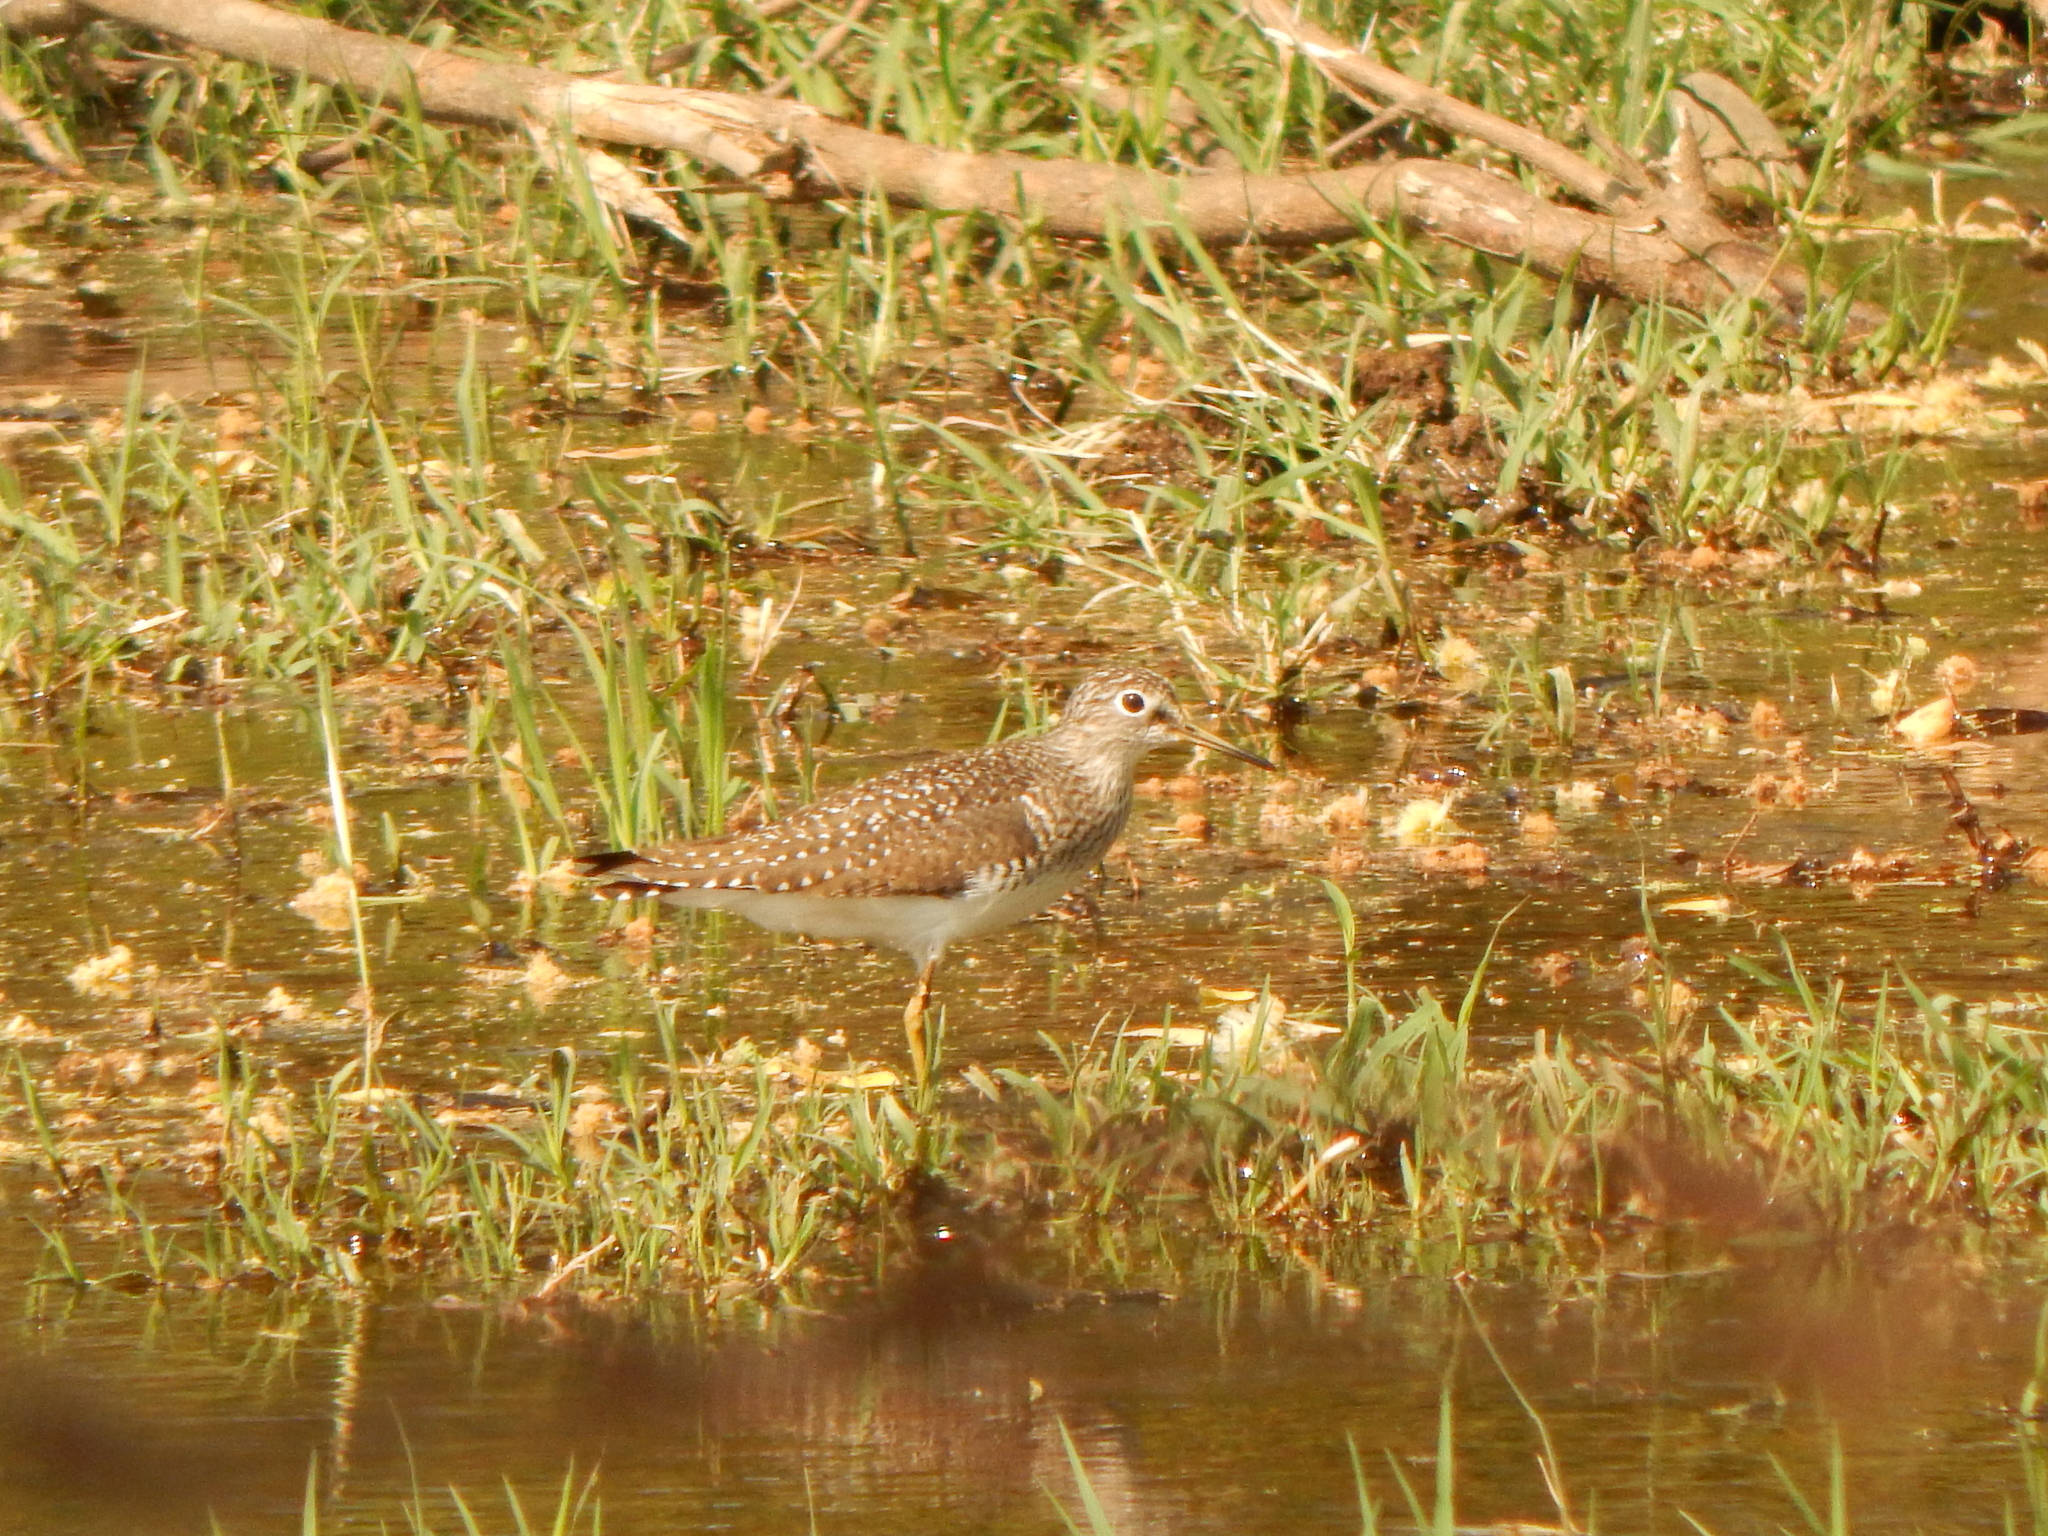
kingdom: Animalia
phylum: Chordata
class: Aves
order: Charadriiformes
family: Scolopacidae
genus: Tringa
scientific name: Tringa solitaria
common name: Solitary sandpiper
